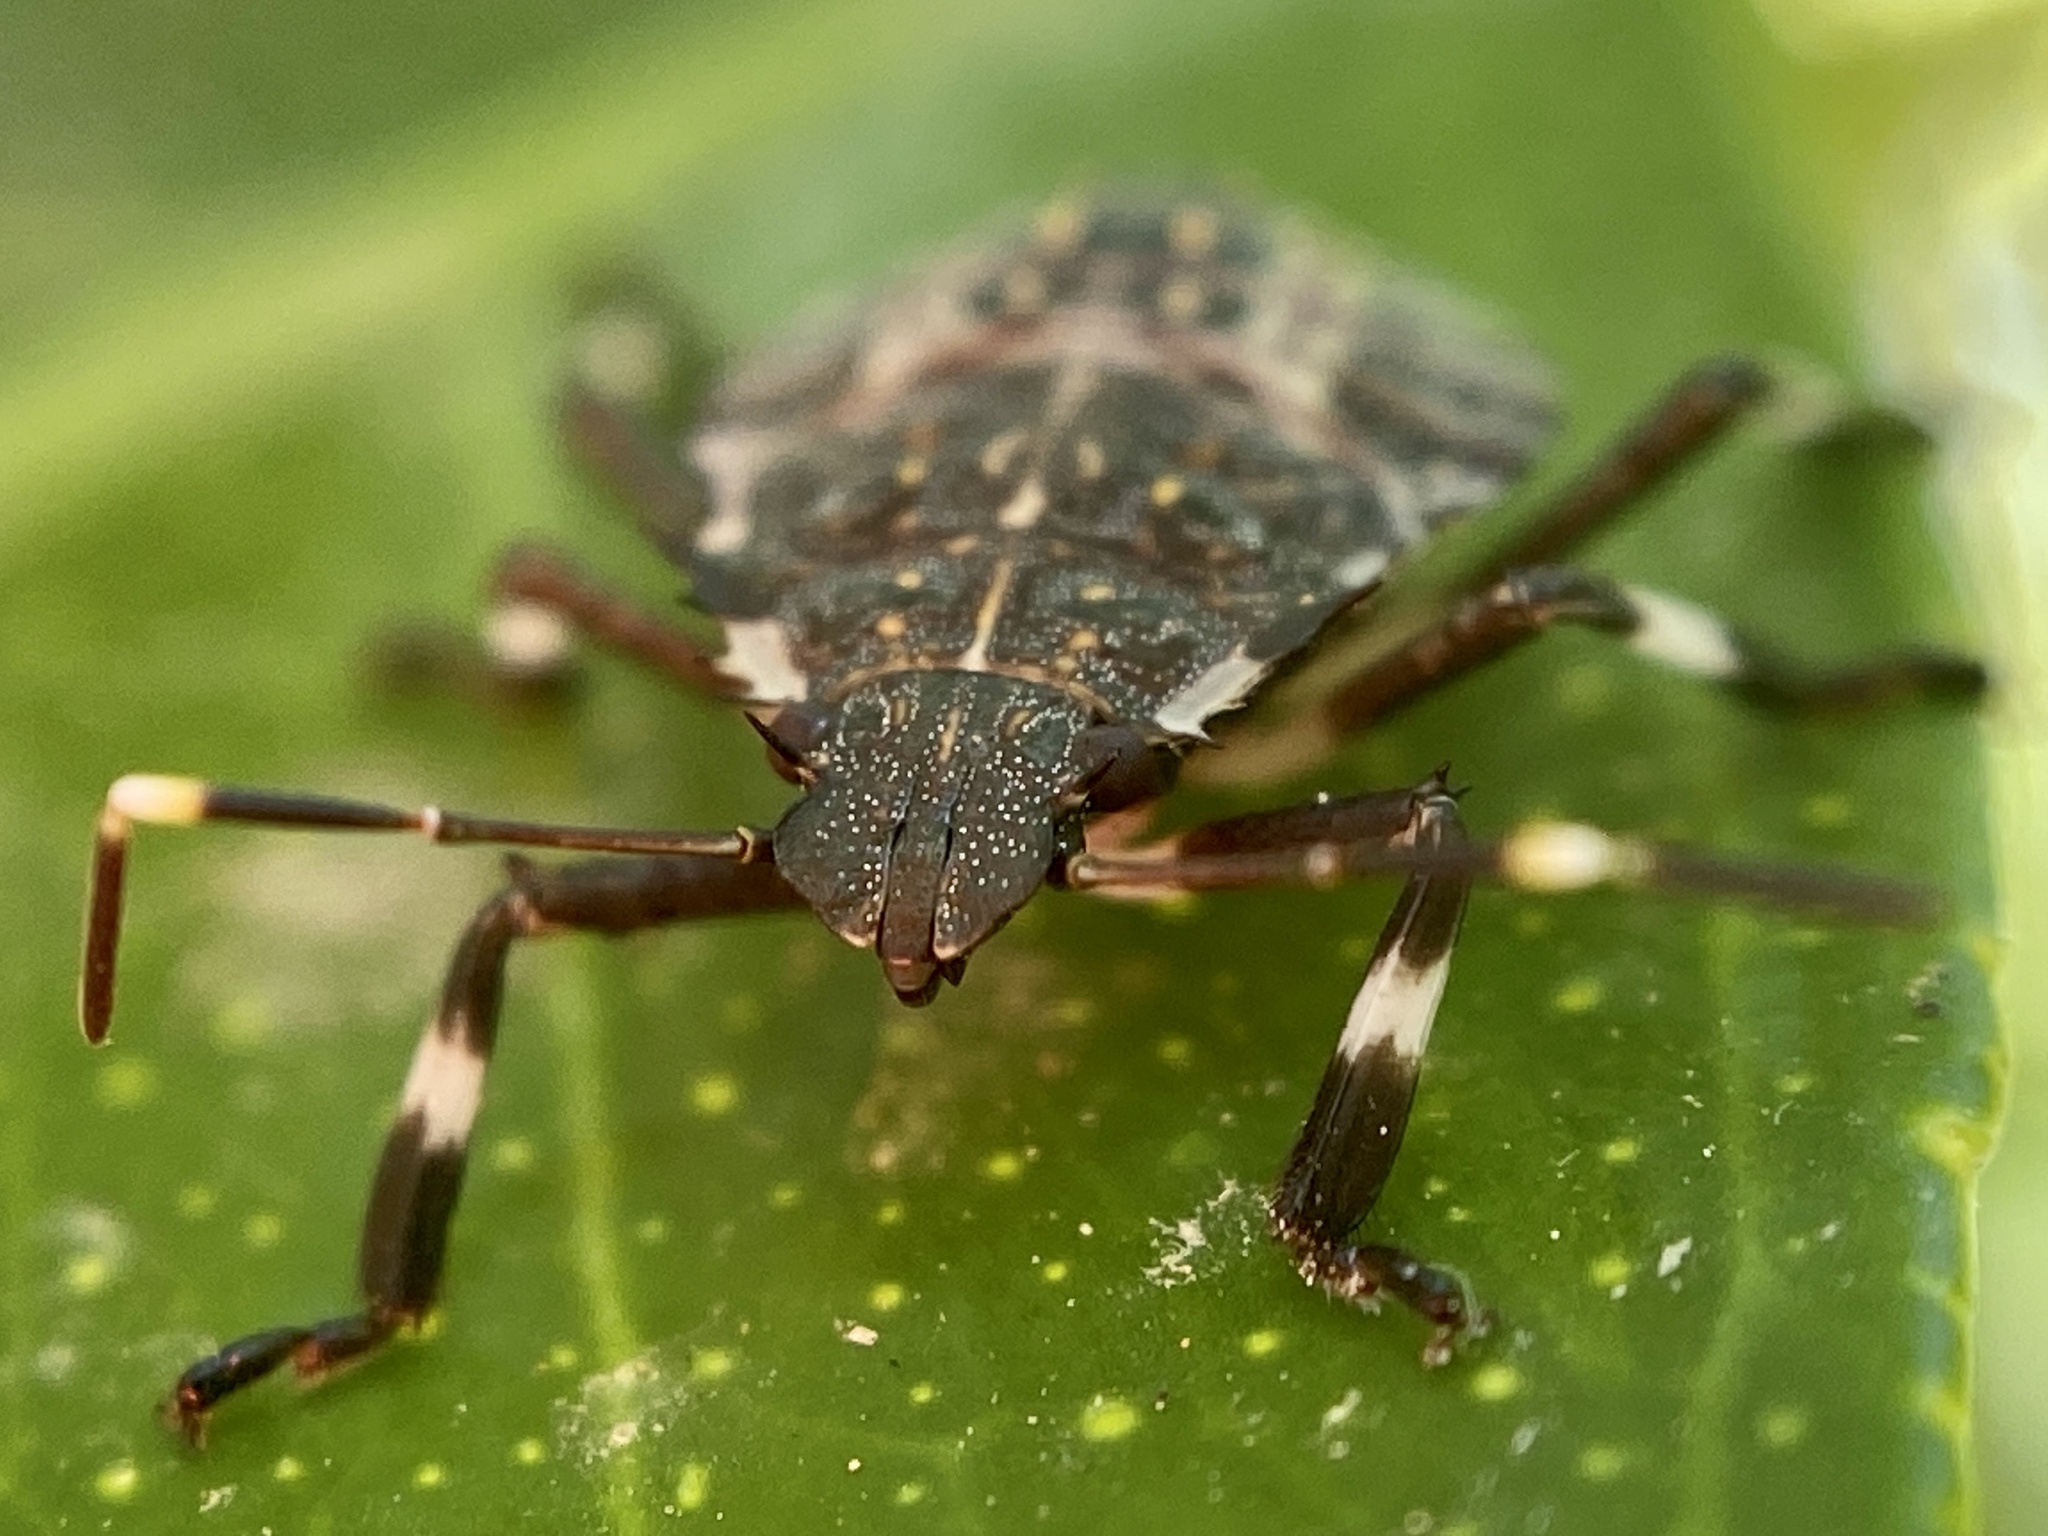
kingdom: Animalia
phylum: Arthropoda
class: Insecta
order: Hemiptera
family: Pentatomidae
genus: Halyomorpha
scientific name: Halyomorpha halys
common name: Brown marmorated stink bug
